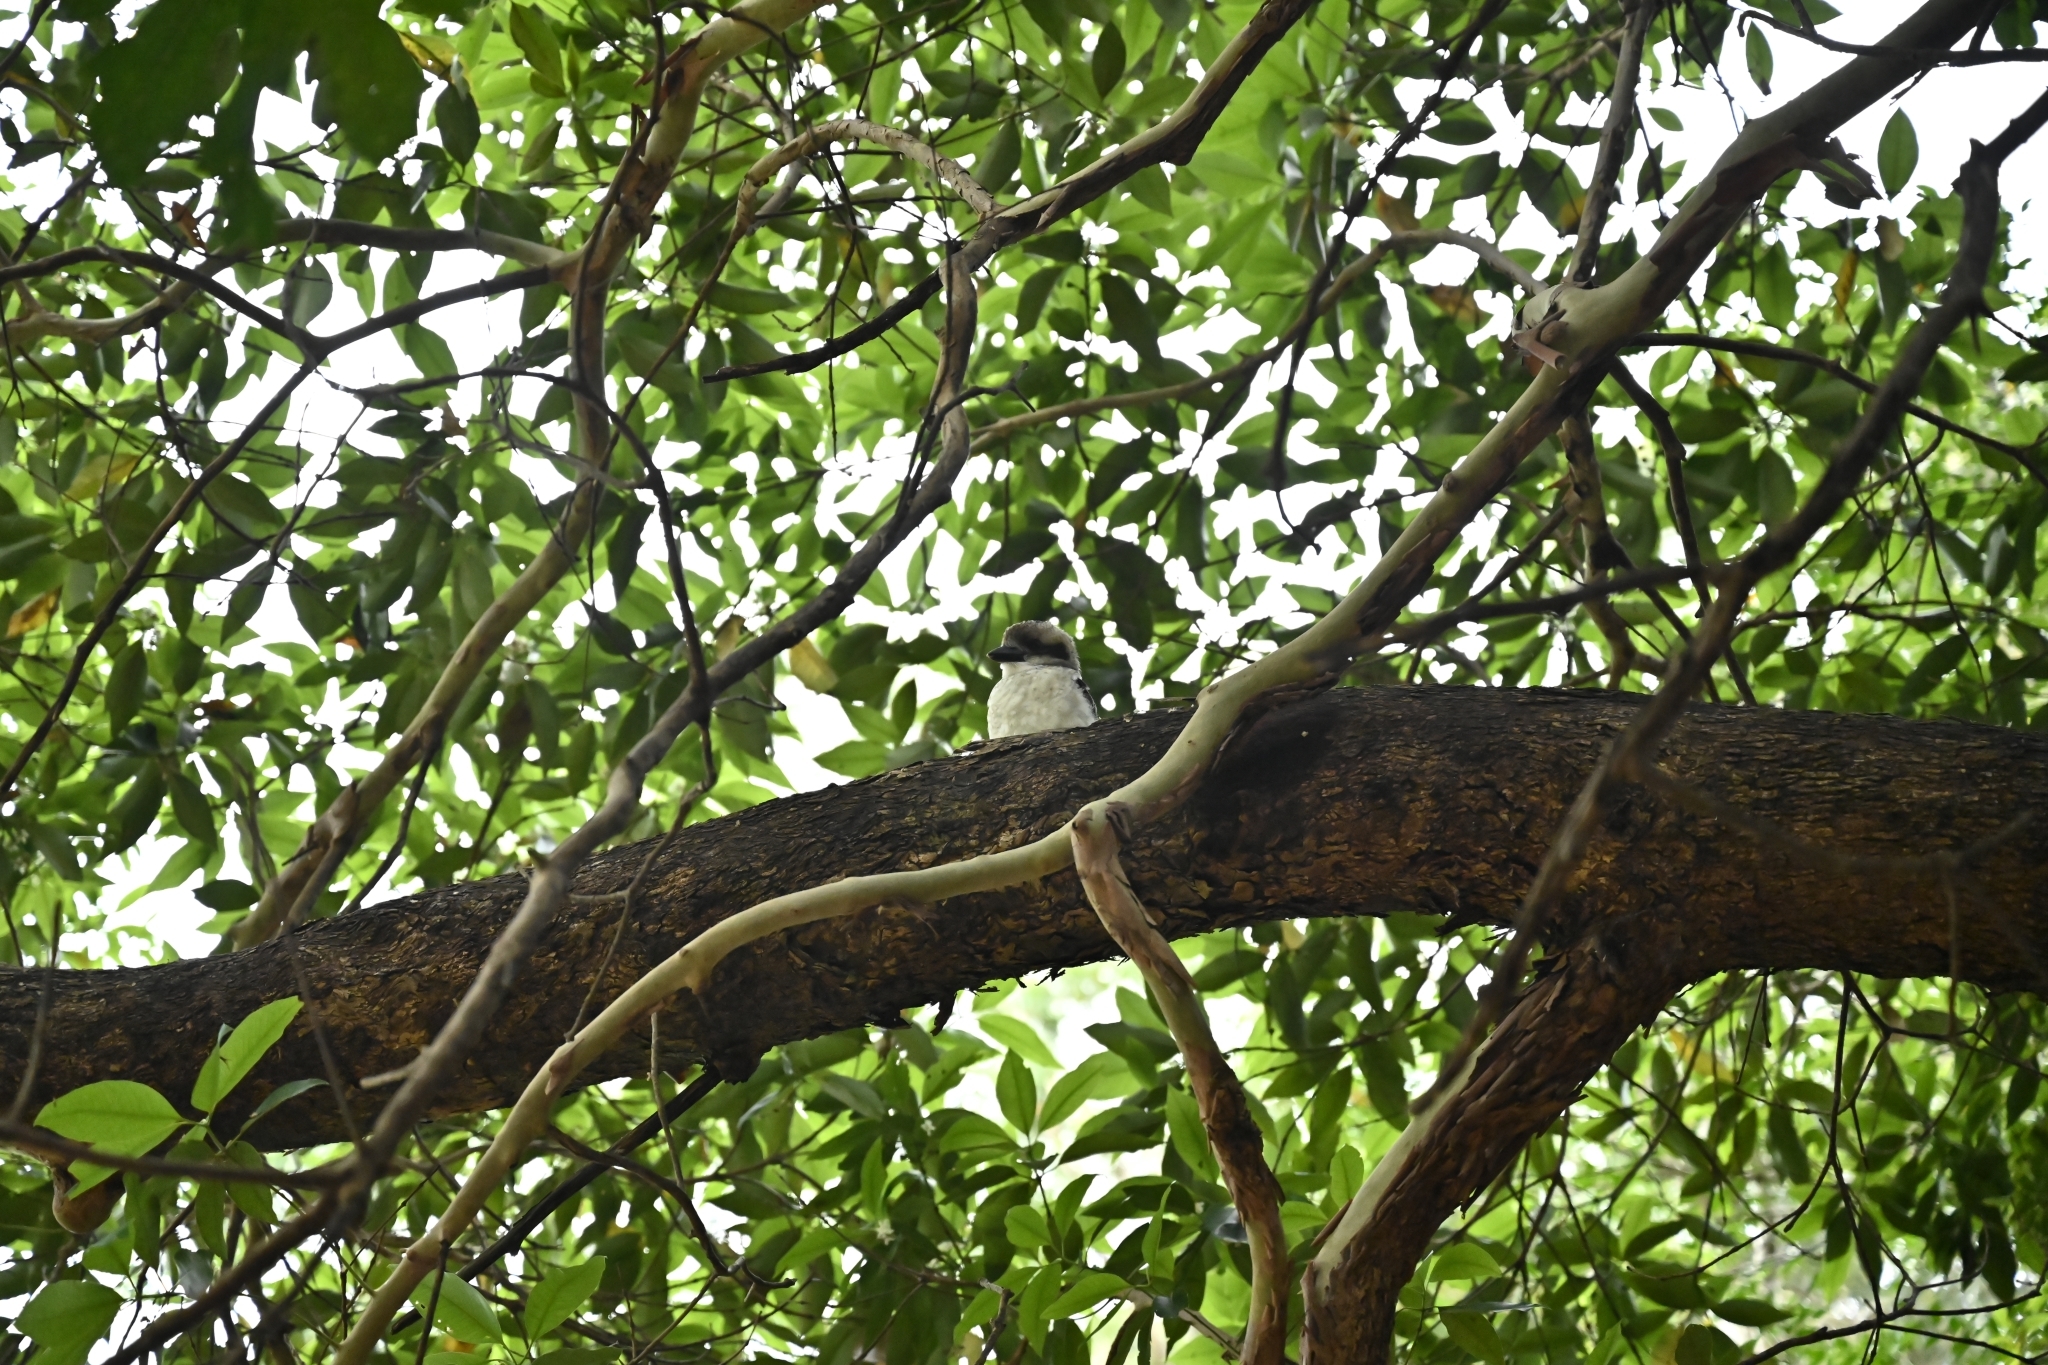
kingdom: Animalia
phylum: Chordata
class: Aves
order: Coraciiformes
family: Alcedinidae
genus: Dacelo
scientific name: Dacelo novaeguineae
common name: Laughing kookaburra
